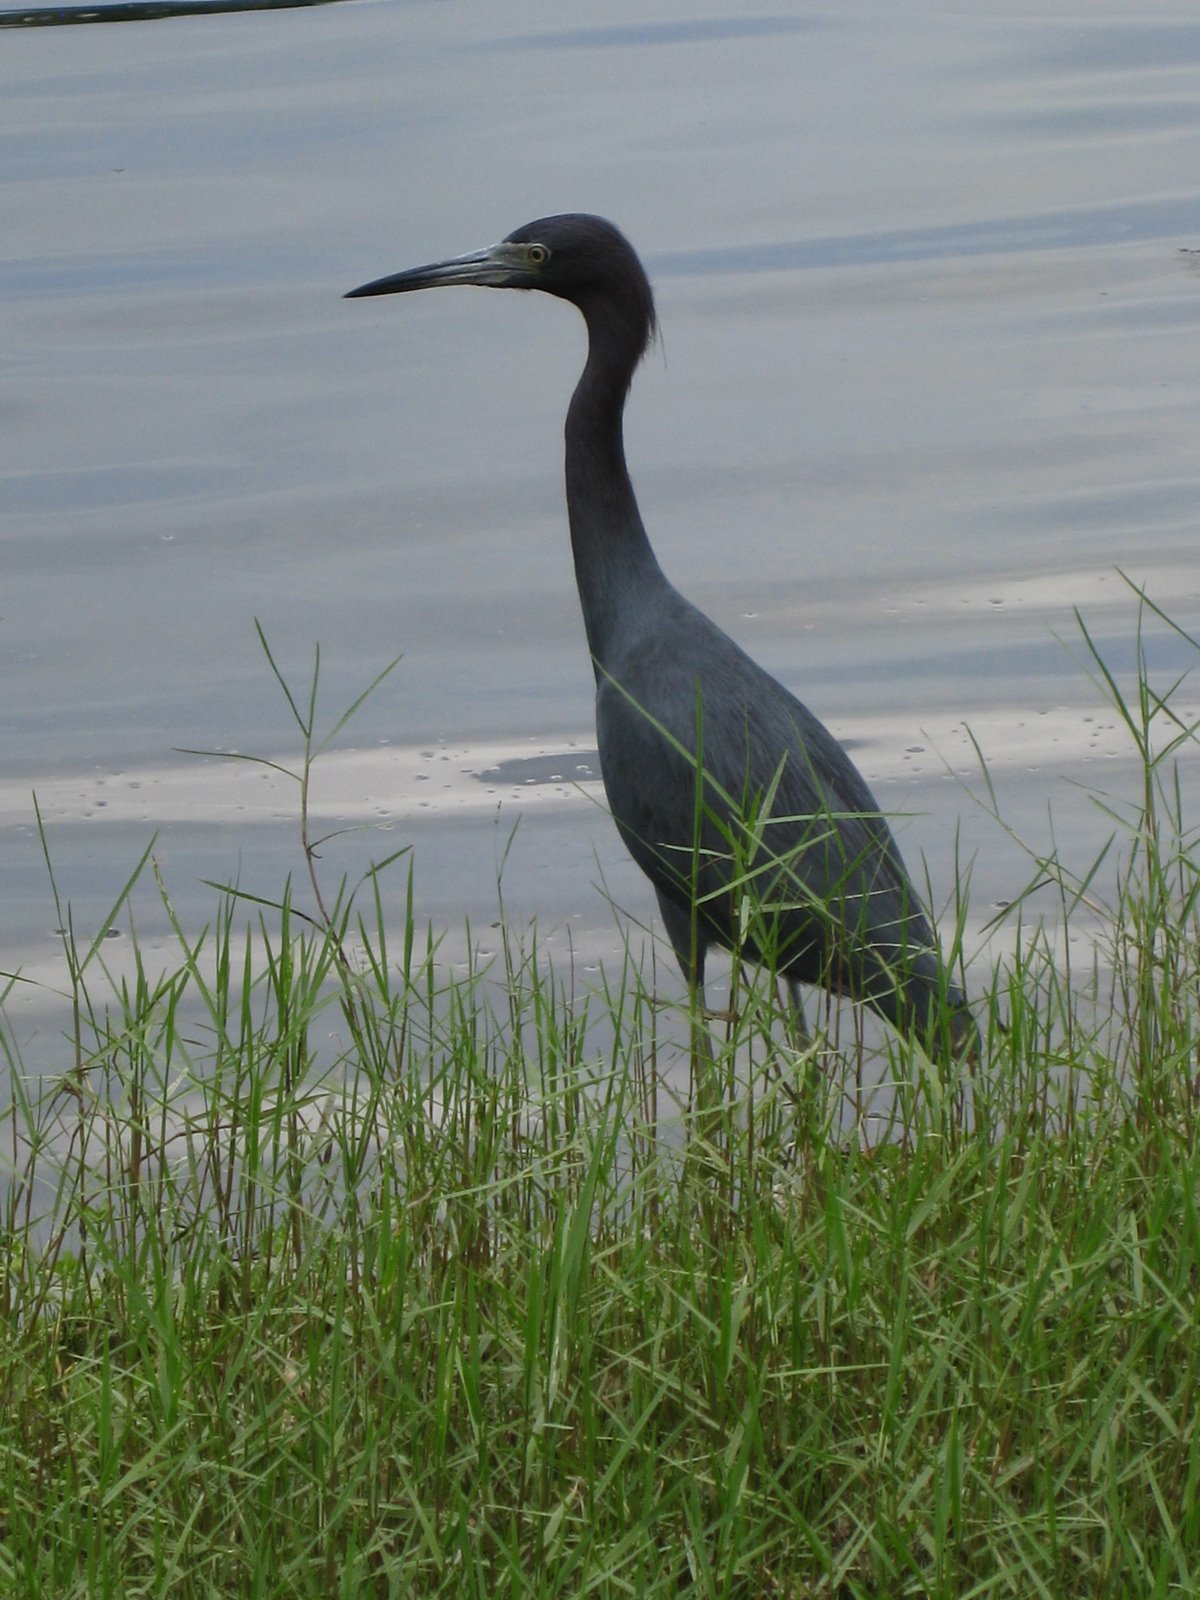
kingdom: Animalia
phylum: Chordata
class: Aves
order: Pelecaniformes
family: Ardeidae
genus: Egretta
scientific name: Egretta caerulea
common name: Little blue heron
